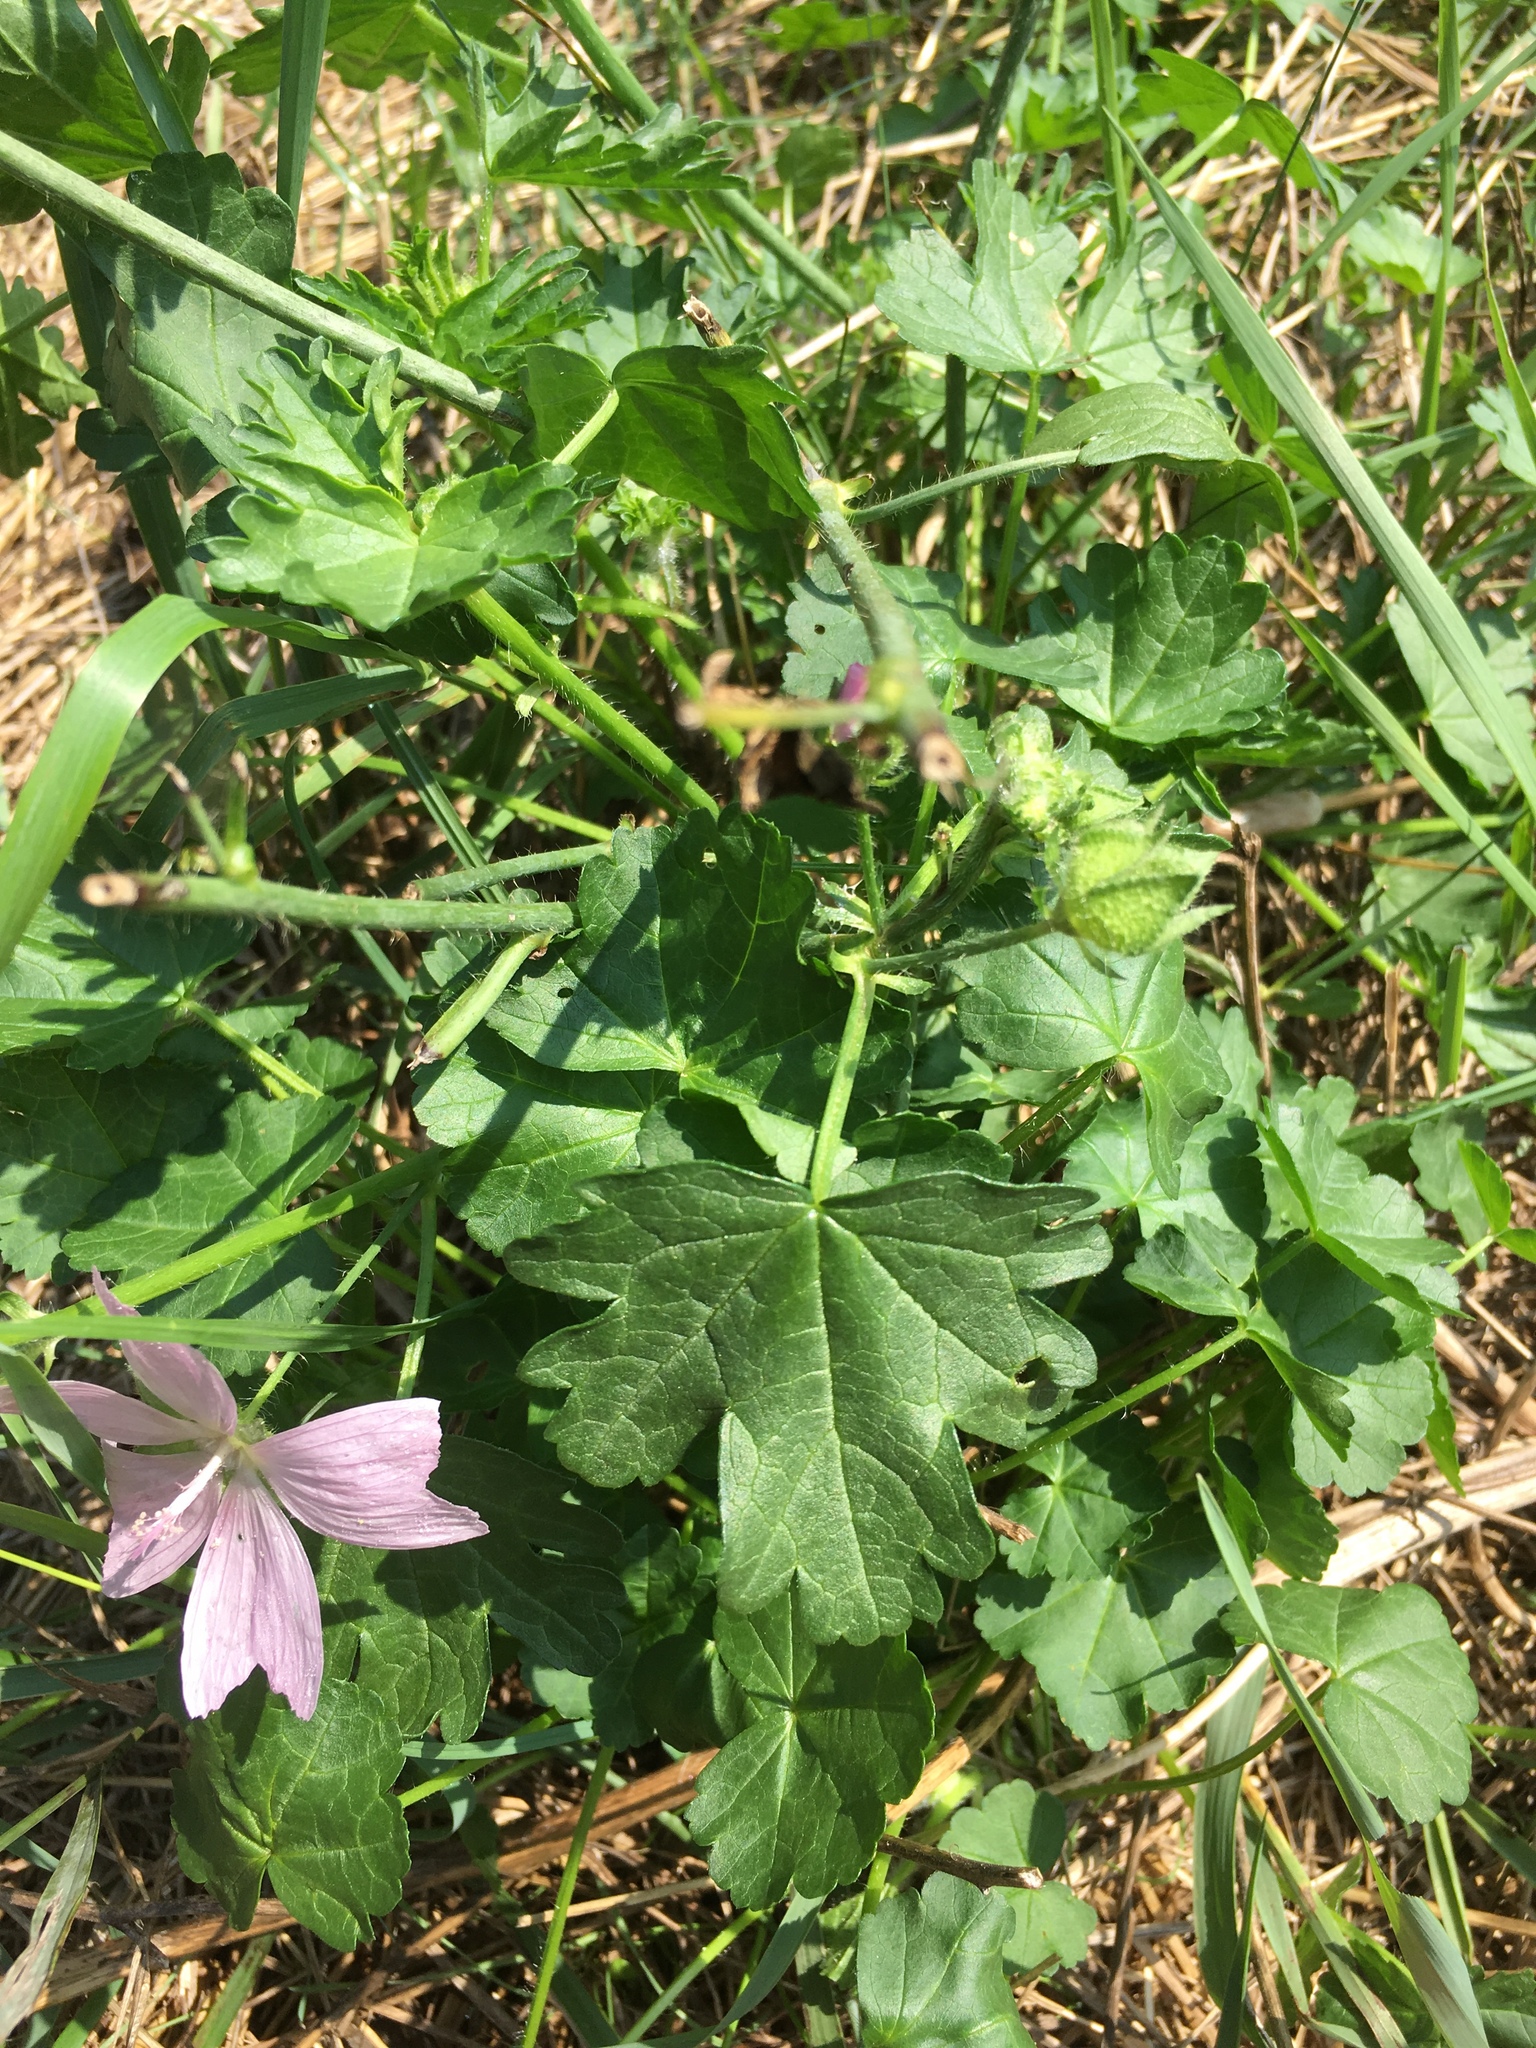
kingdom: Plantae
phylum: Tracheophyta
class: Magnoliopsida
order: Malvales
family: Malvaceae
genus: Malva
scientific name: Malva moschata
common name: Musk mallow
